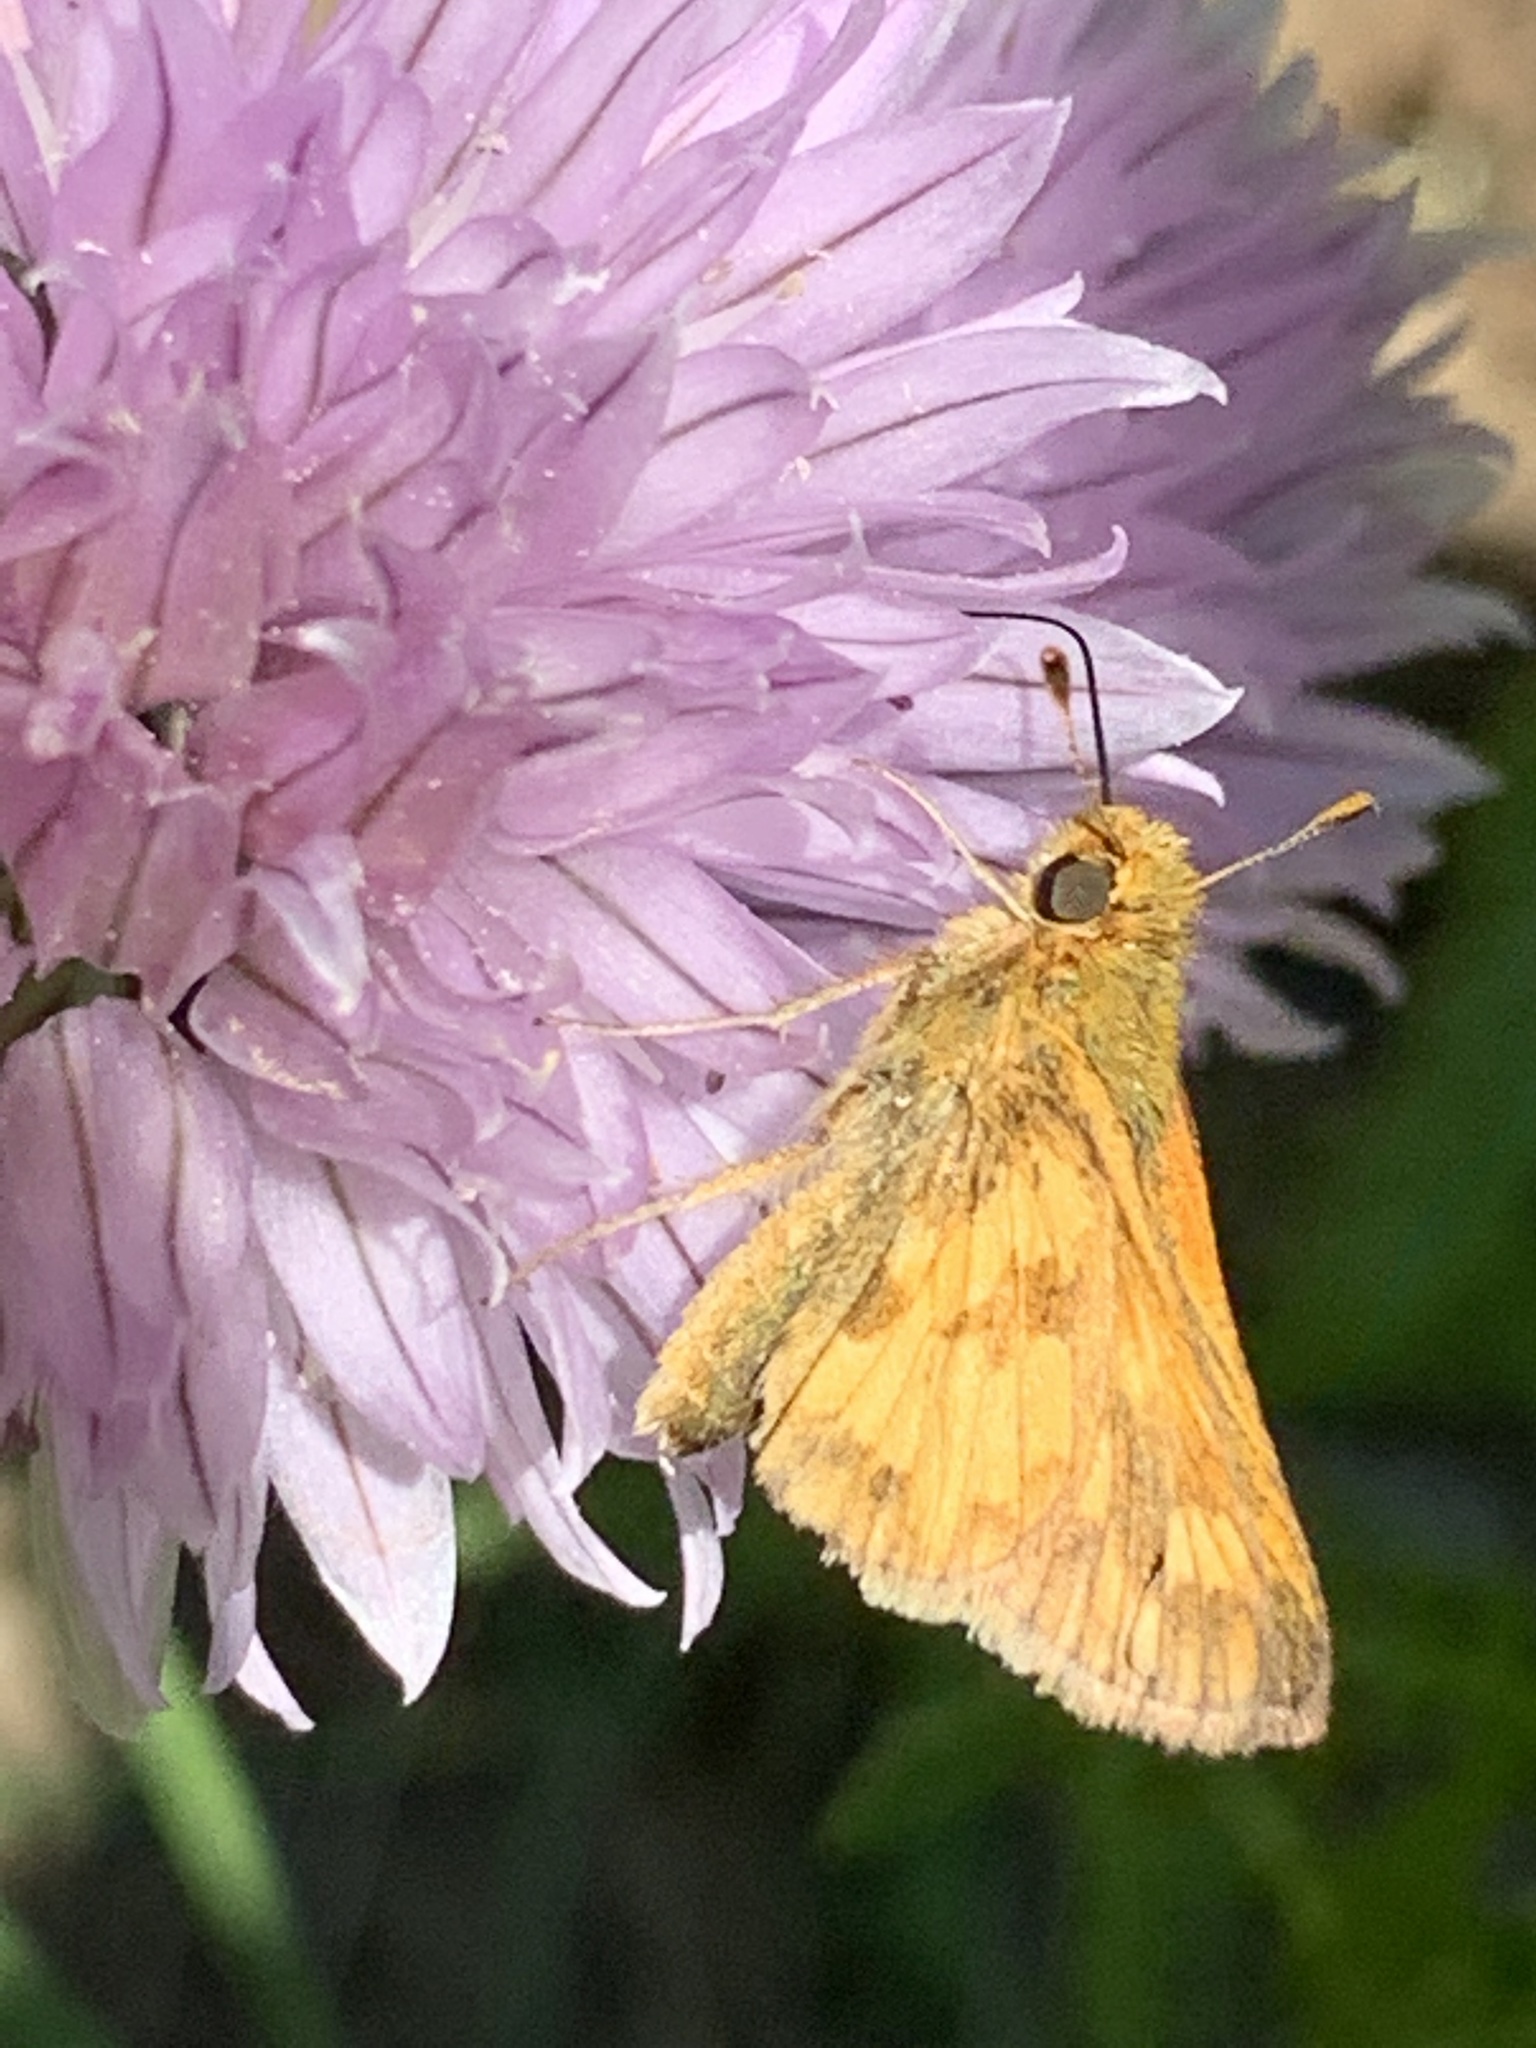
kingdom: Animalia
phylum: Arthropoda
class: Insecta
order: Lepidoptera
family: Hesperiidae
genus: Polites
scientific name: Polites coras
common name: Peck's skipper
